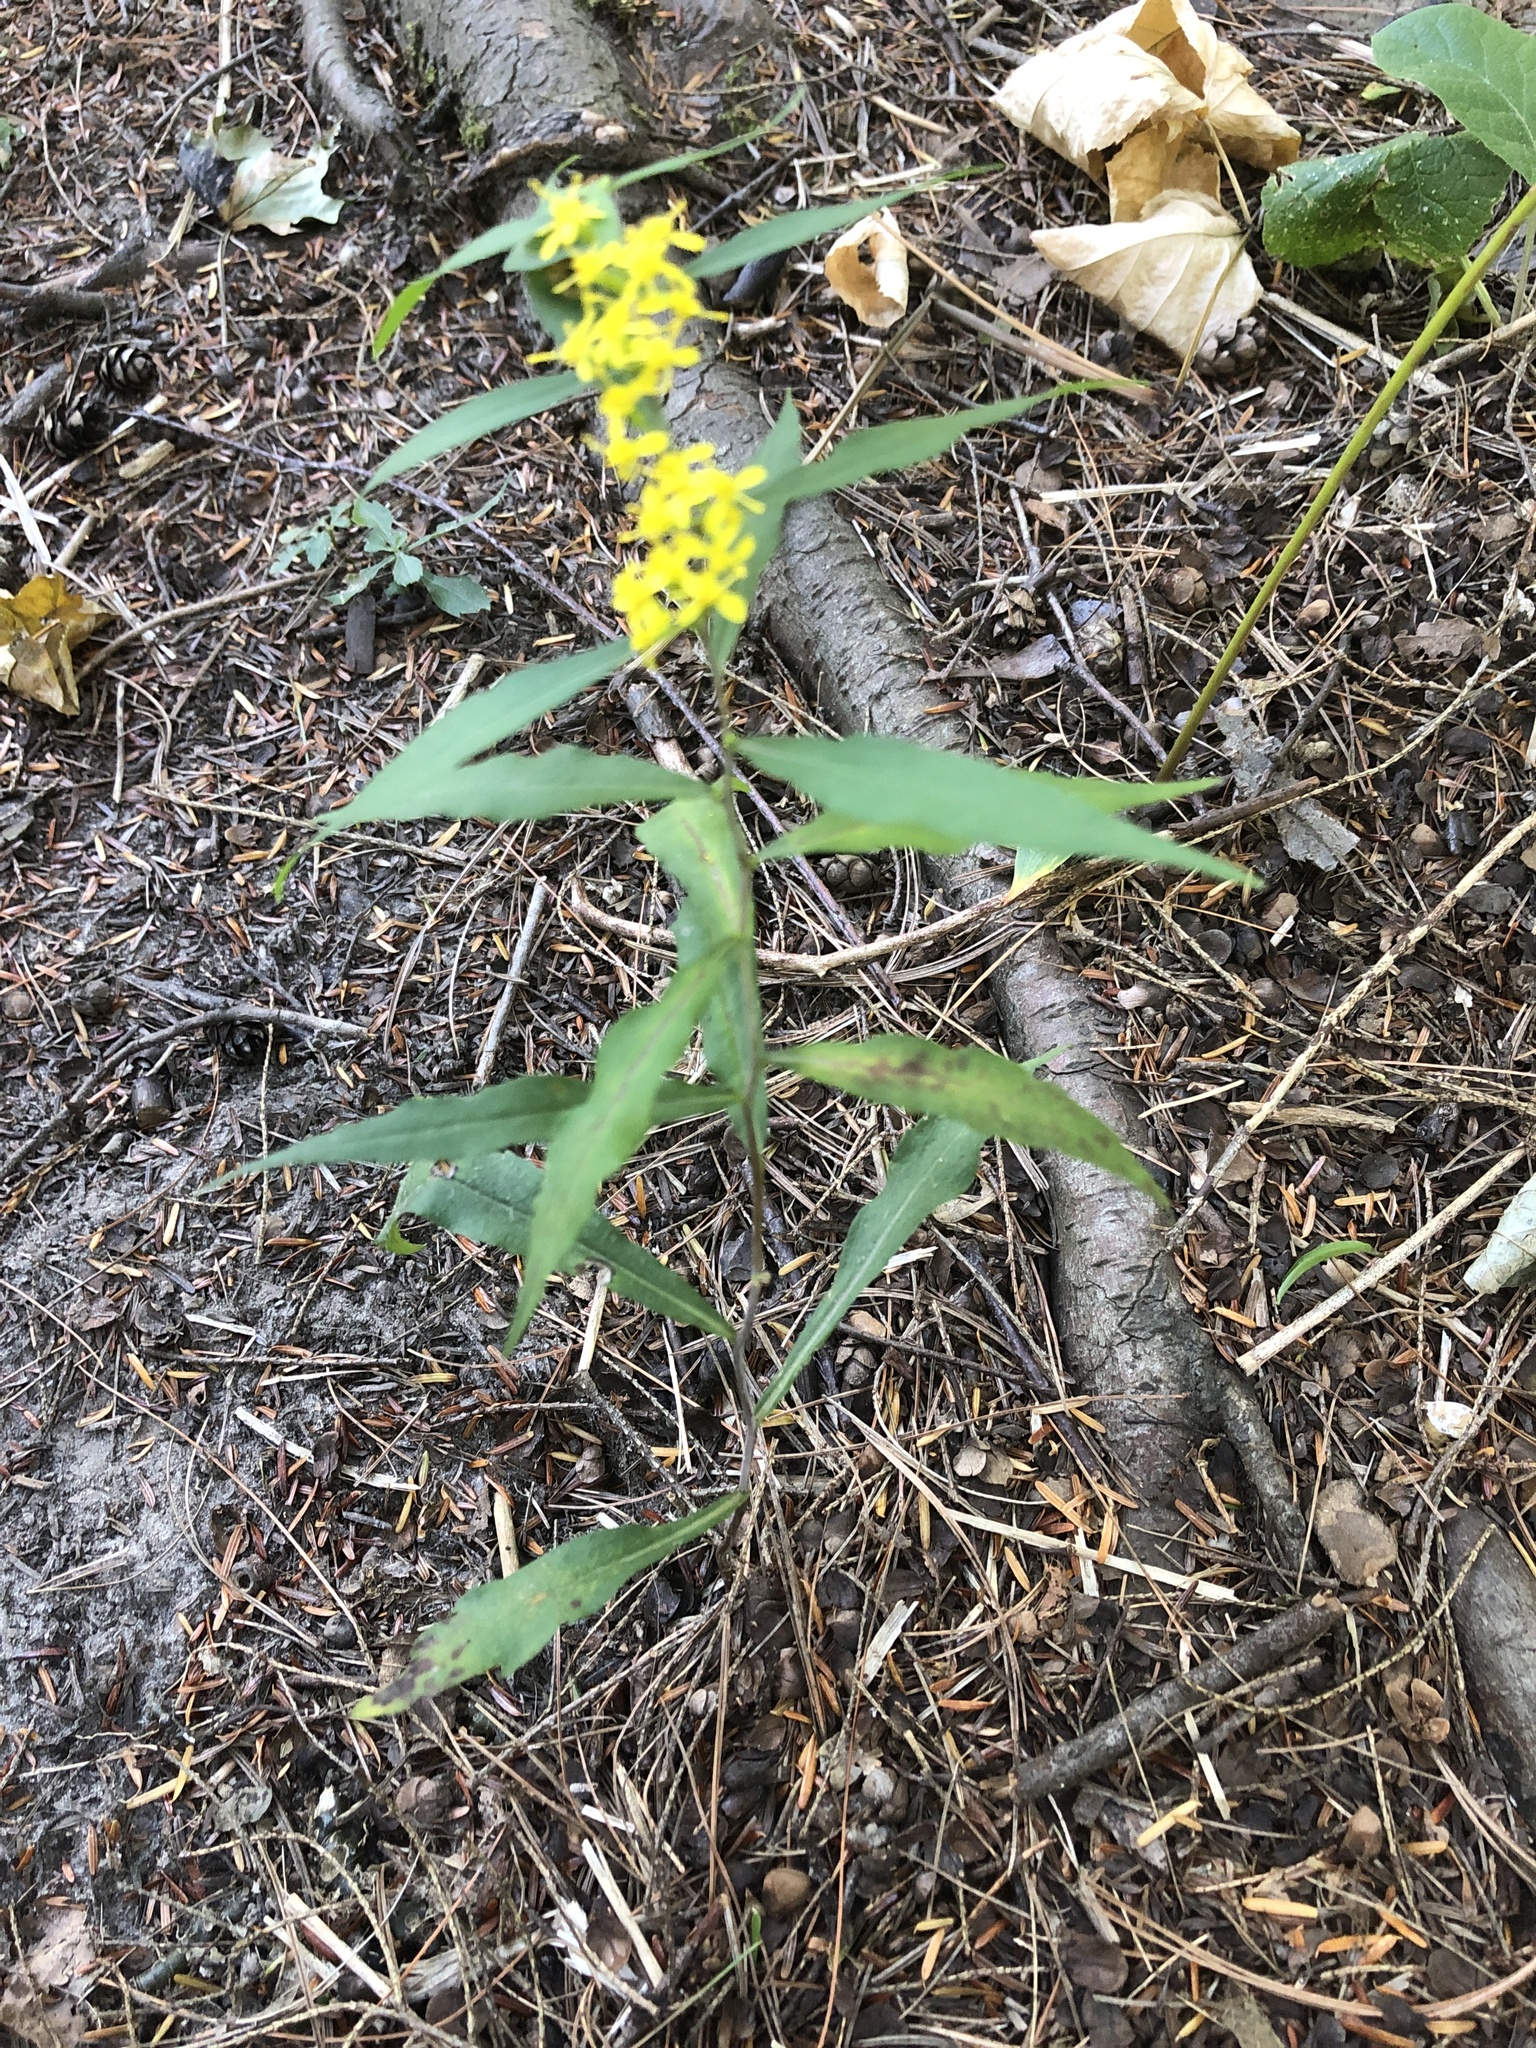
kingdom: Plantae
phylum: Tracheophyta
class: Magnoliopsida
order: Asterales
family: Asteraceae
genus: Solidago
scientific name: Solidago caesia
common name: Woodland goldenrod
